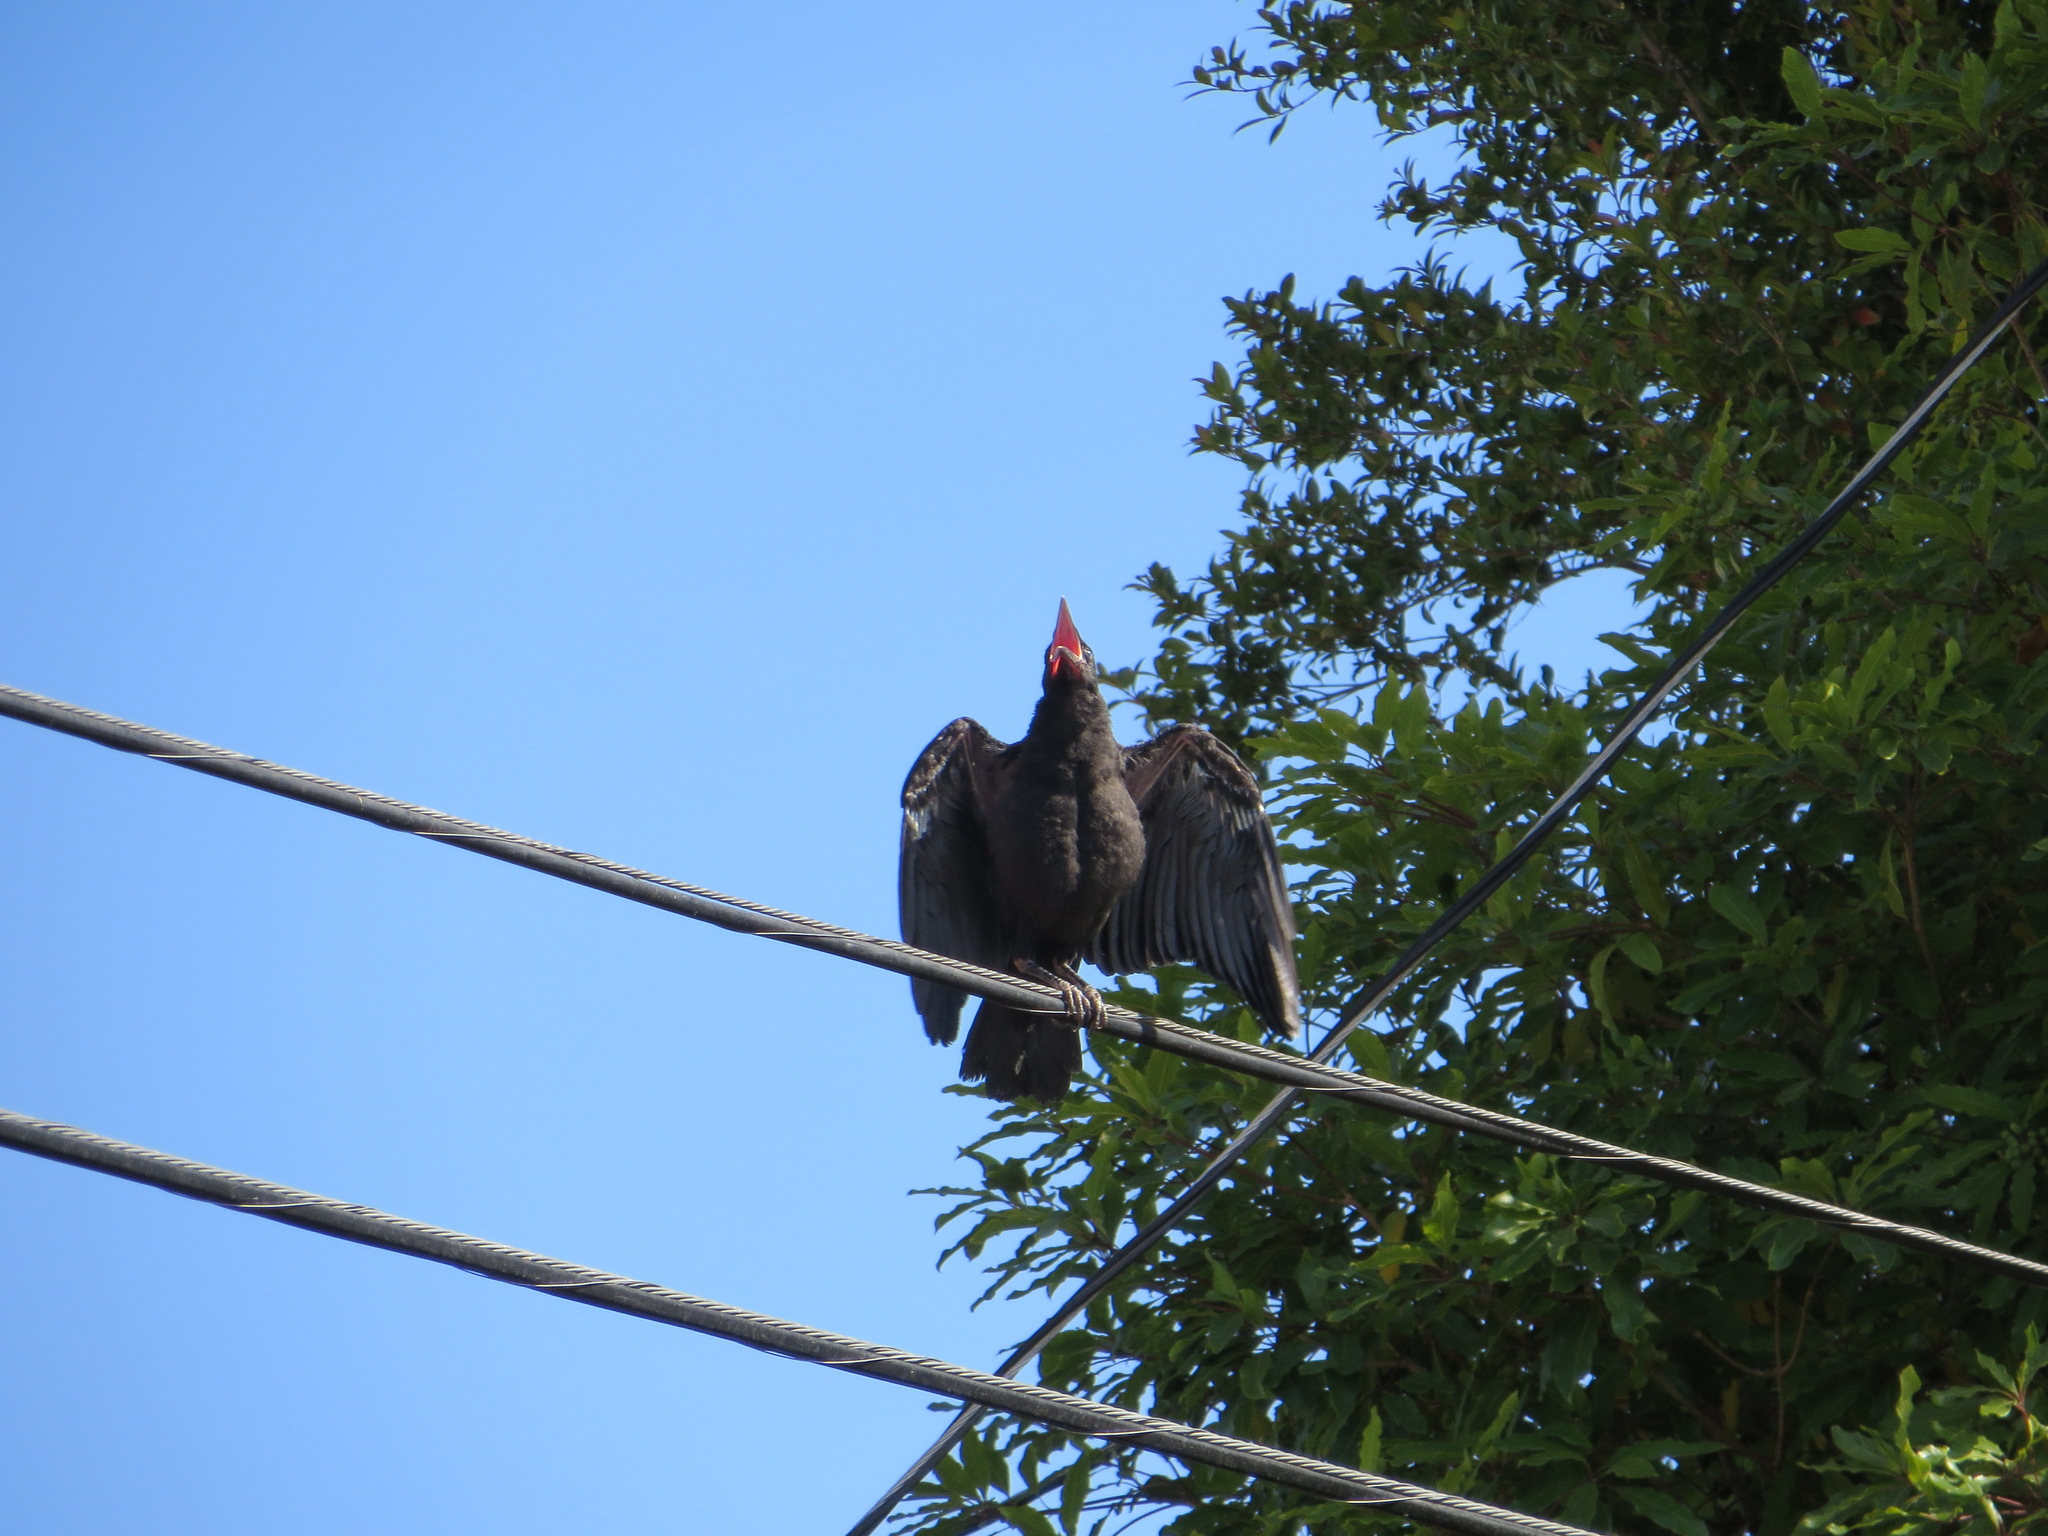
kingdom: Animalia
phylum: Chordata
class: Aves
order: Passeriformes
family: Corvidae
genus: Corvus
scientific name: Corvus brachyrhynchos
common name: American crow
